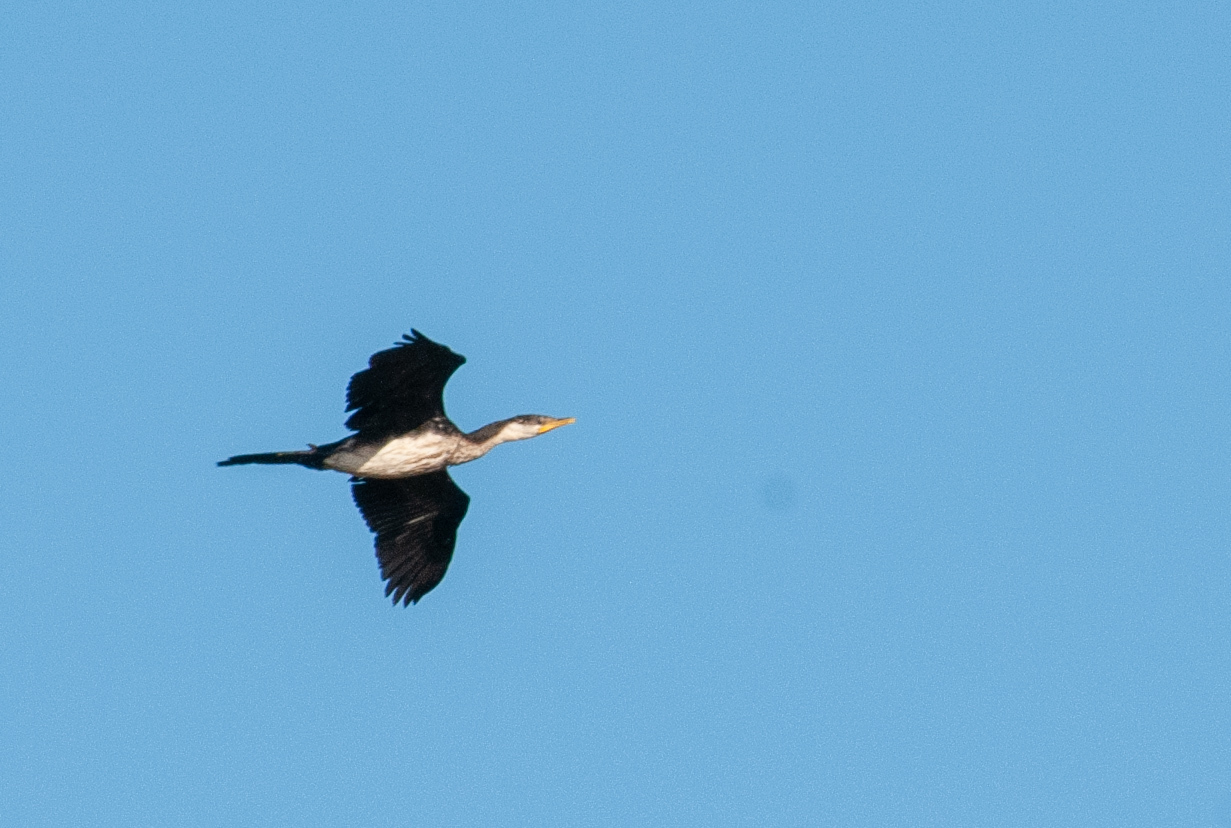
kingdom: Animalia
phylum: Chordata
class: Aves
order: Suliformes
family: Phalacrocoracidae
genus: Microcarbo
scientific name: Microcarbo melanoleucos
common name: Little pied cormorant
